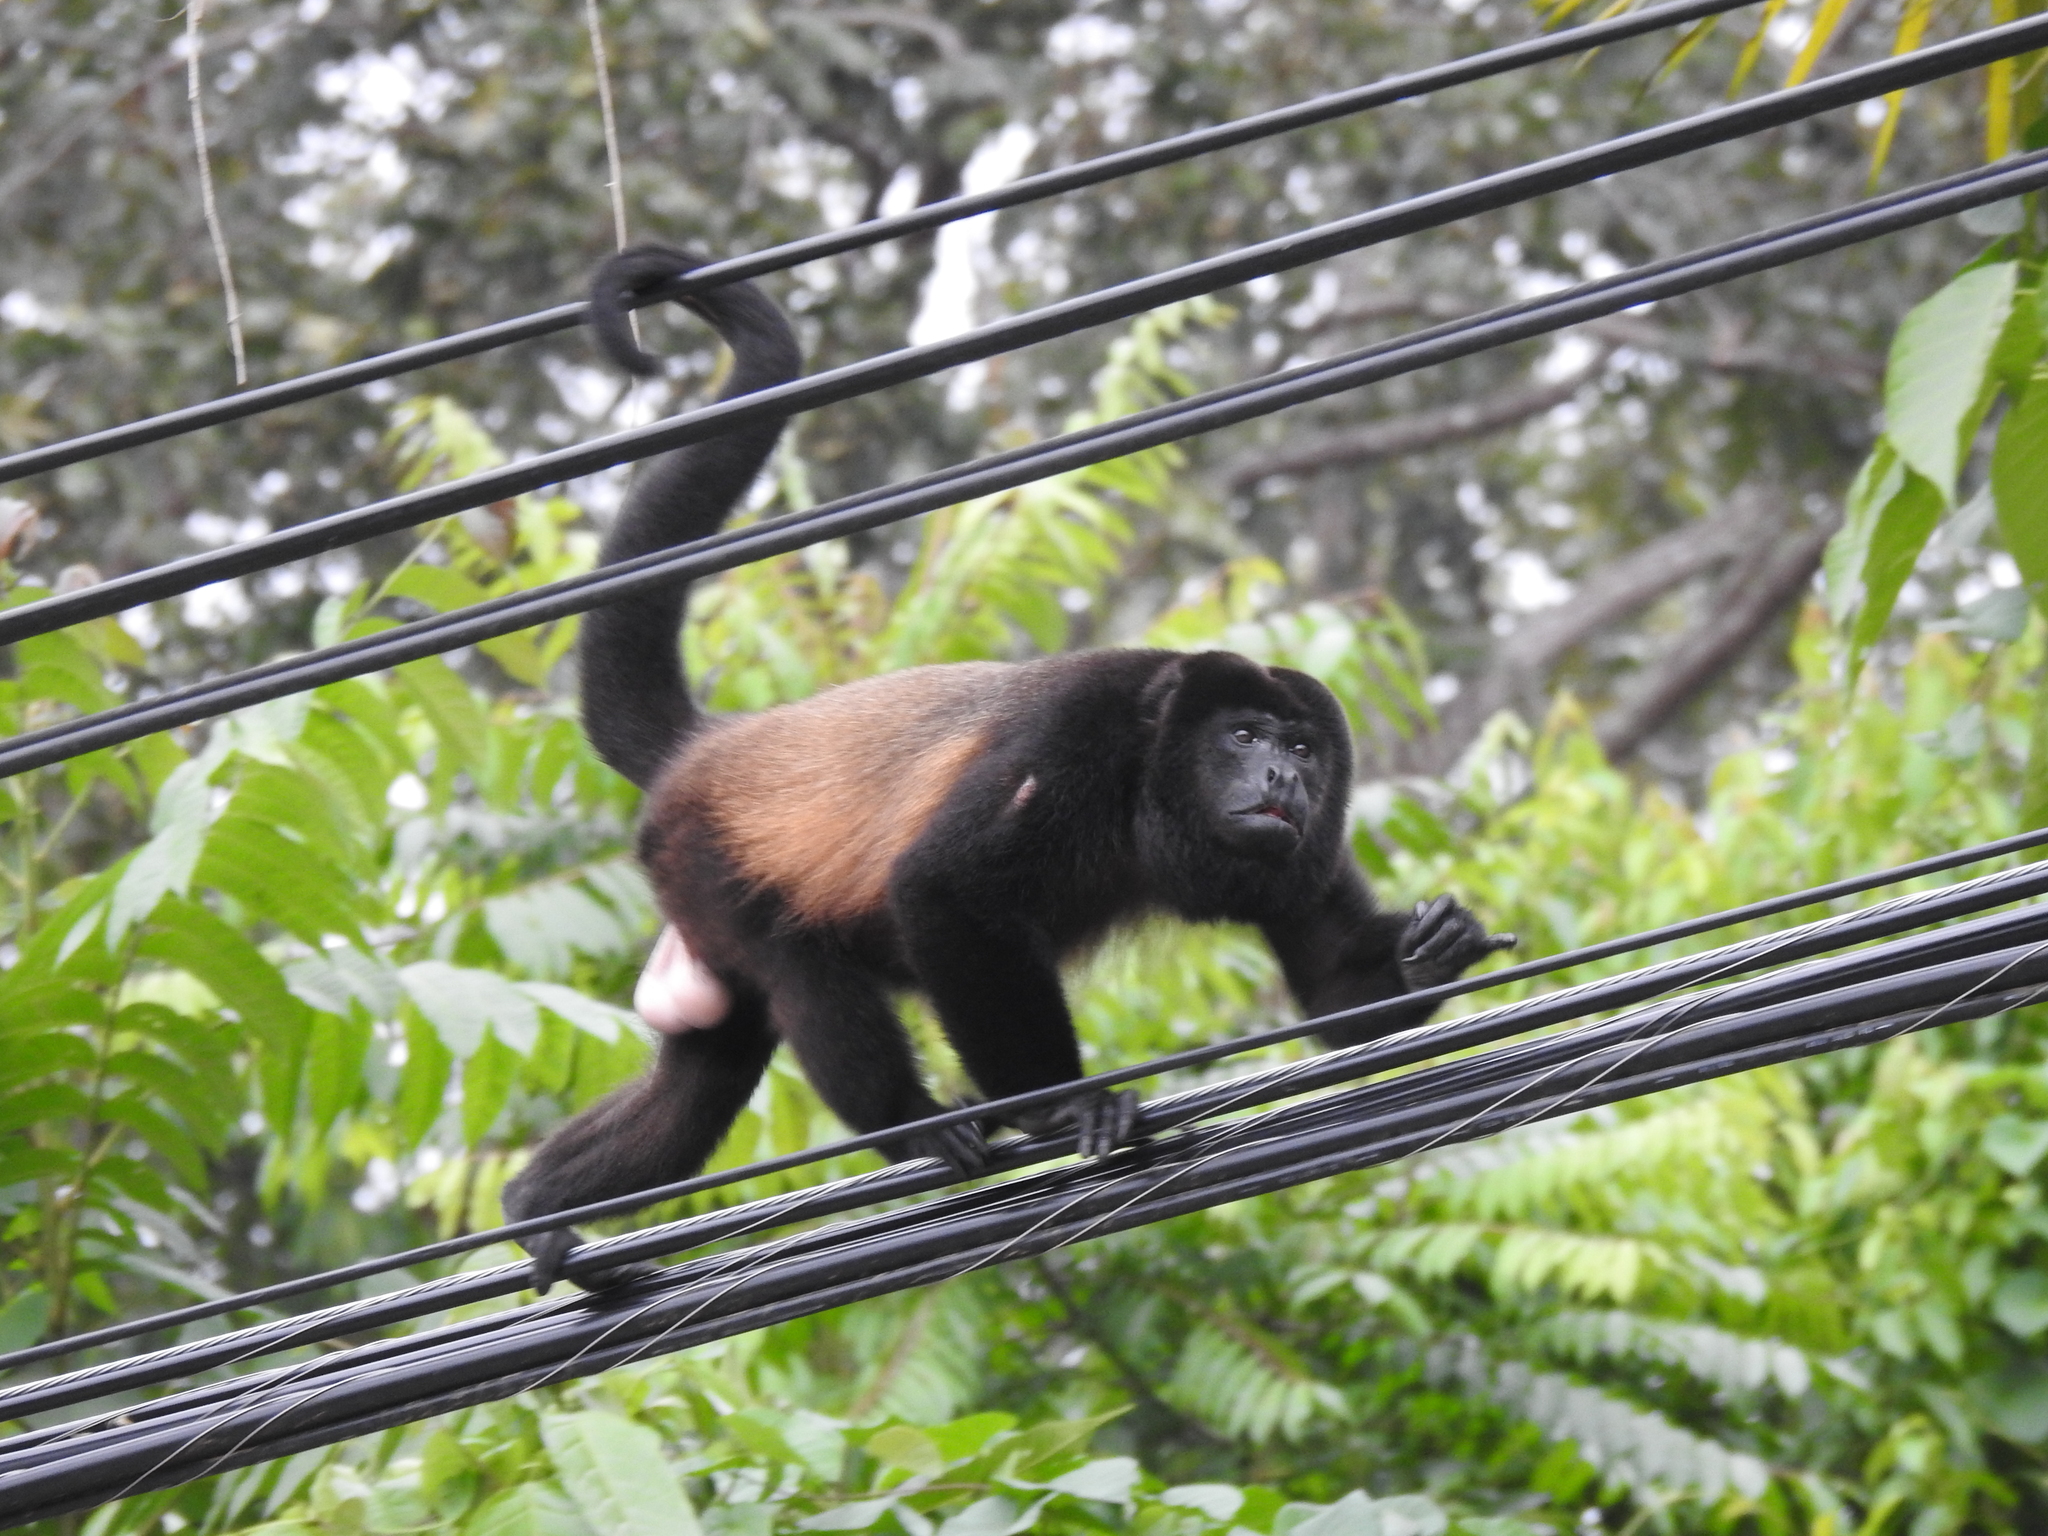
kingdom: Animalia
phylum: Chordata
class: Mammalia
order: Primates
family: Atelidae
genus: Alouatta
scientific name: Alouatta palliata
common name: Mantled howler
